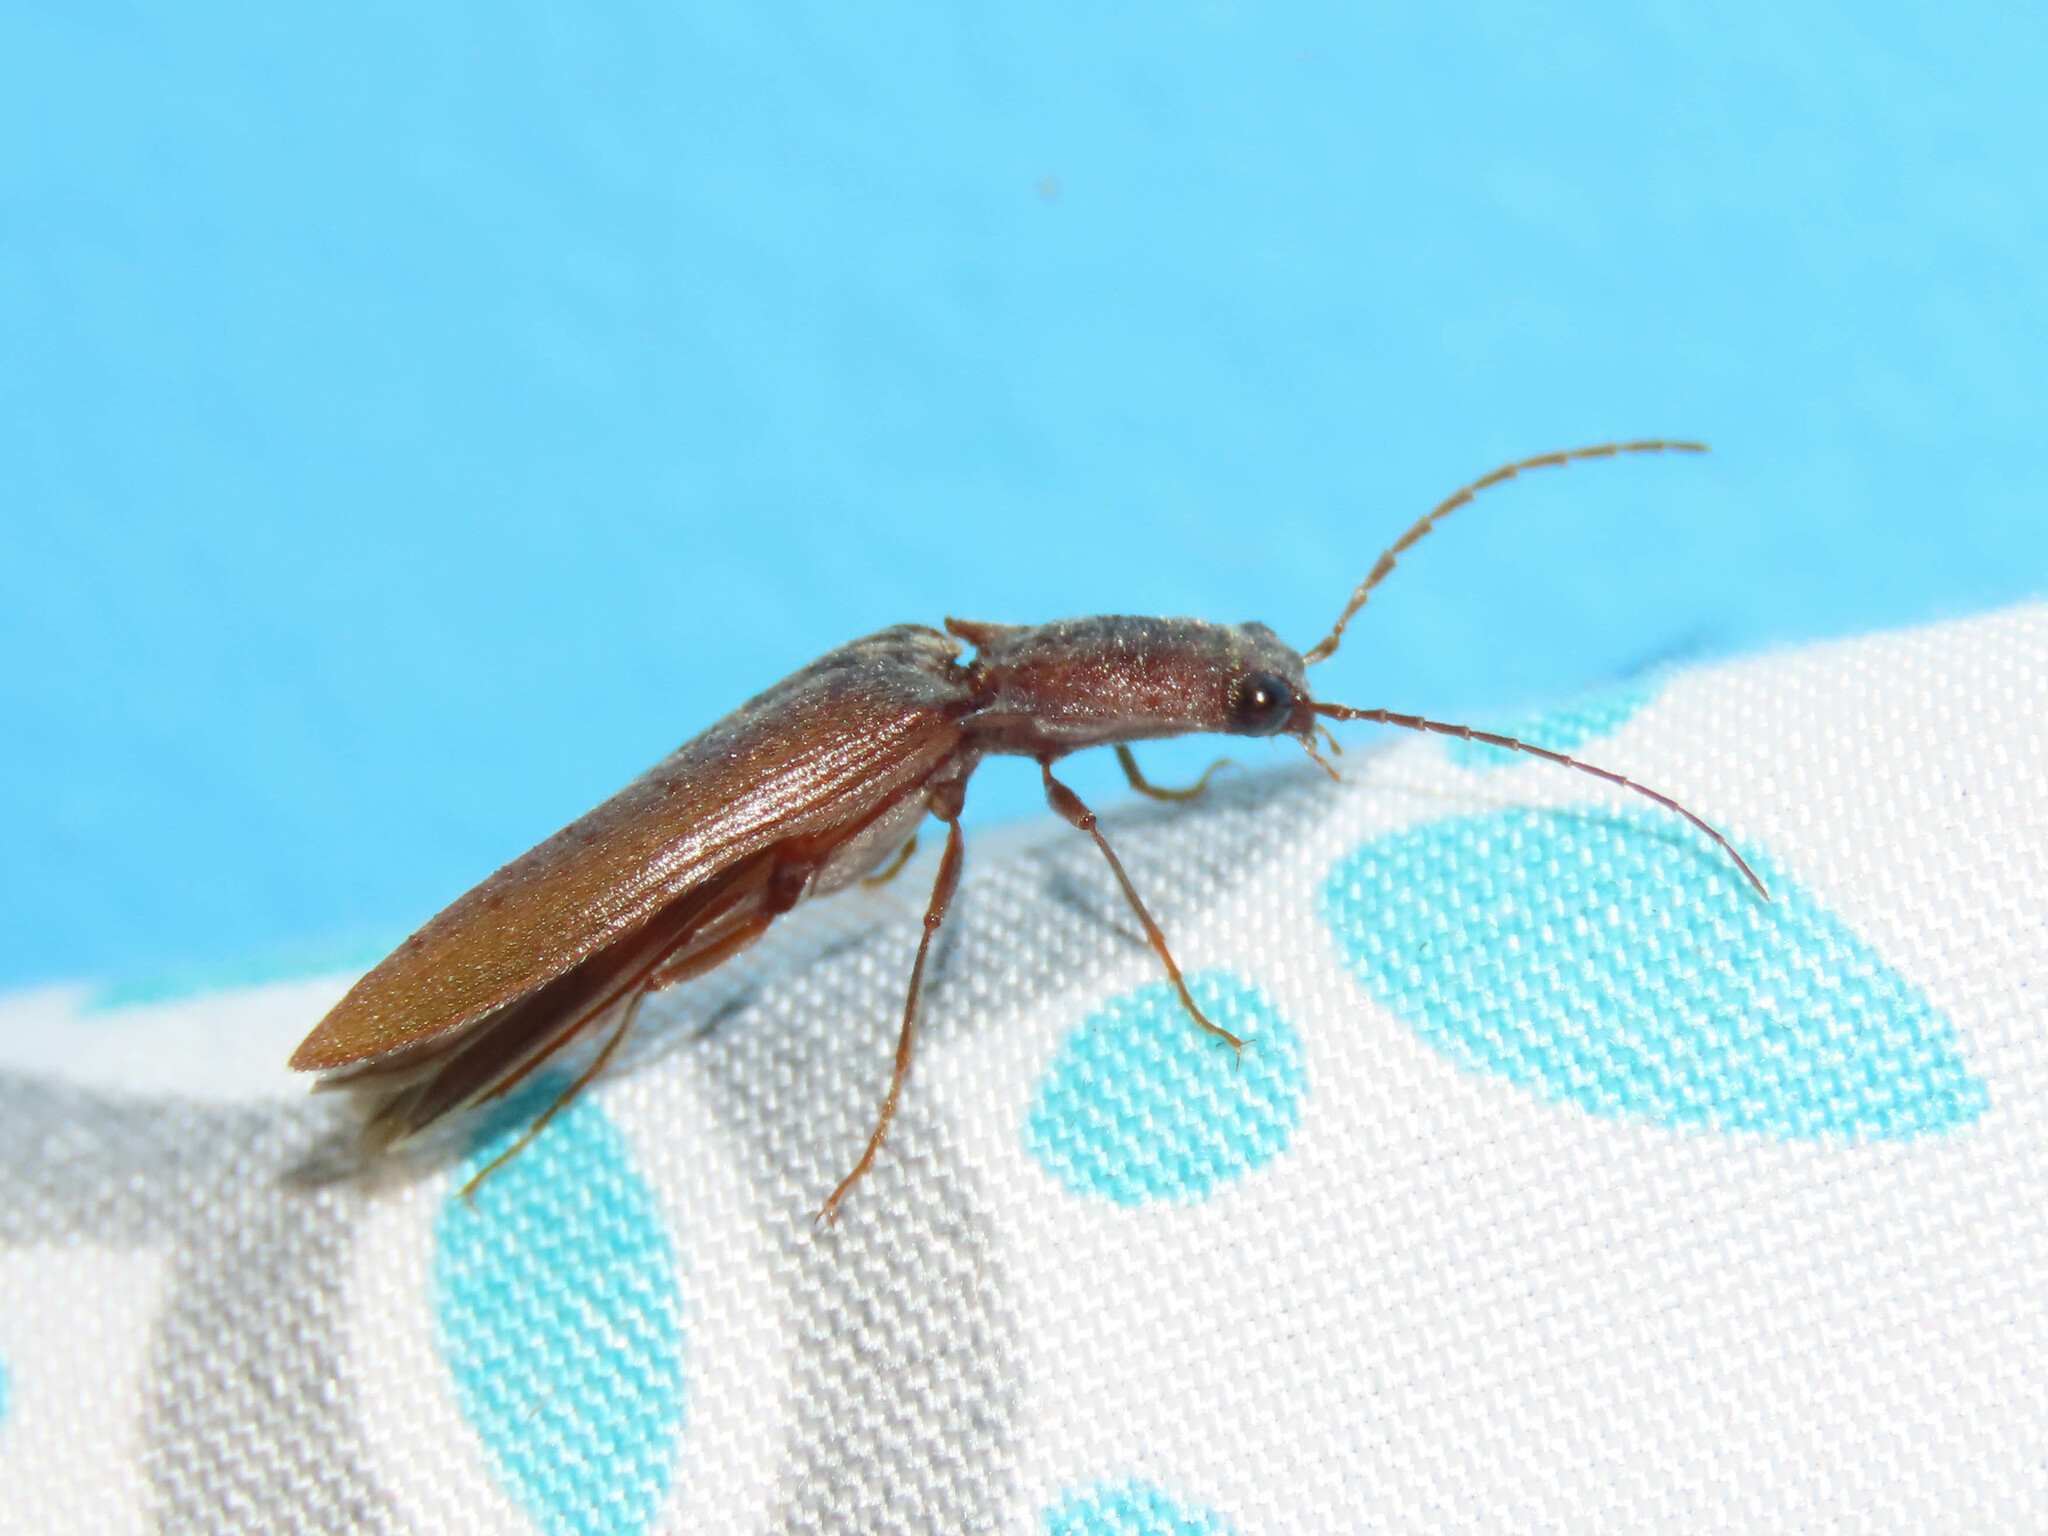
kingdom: Animalia
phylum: Arthropoda
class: Insecta
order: Coleoptera
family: Elateridae
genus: Proludius
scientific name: Proludius pyrros
